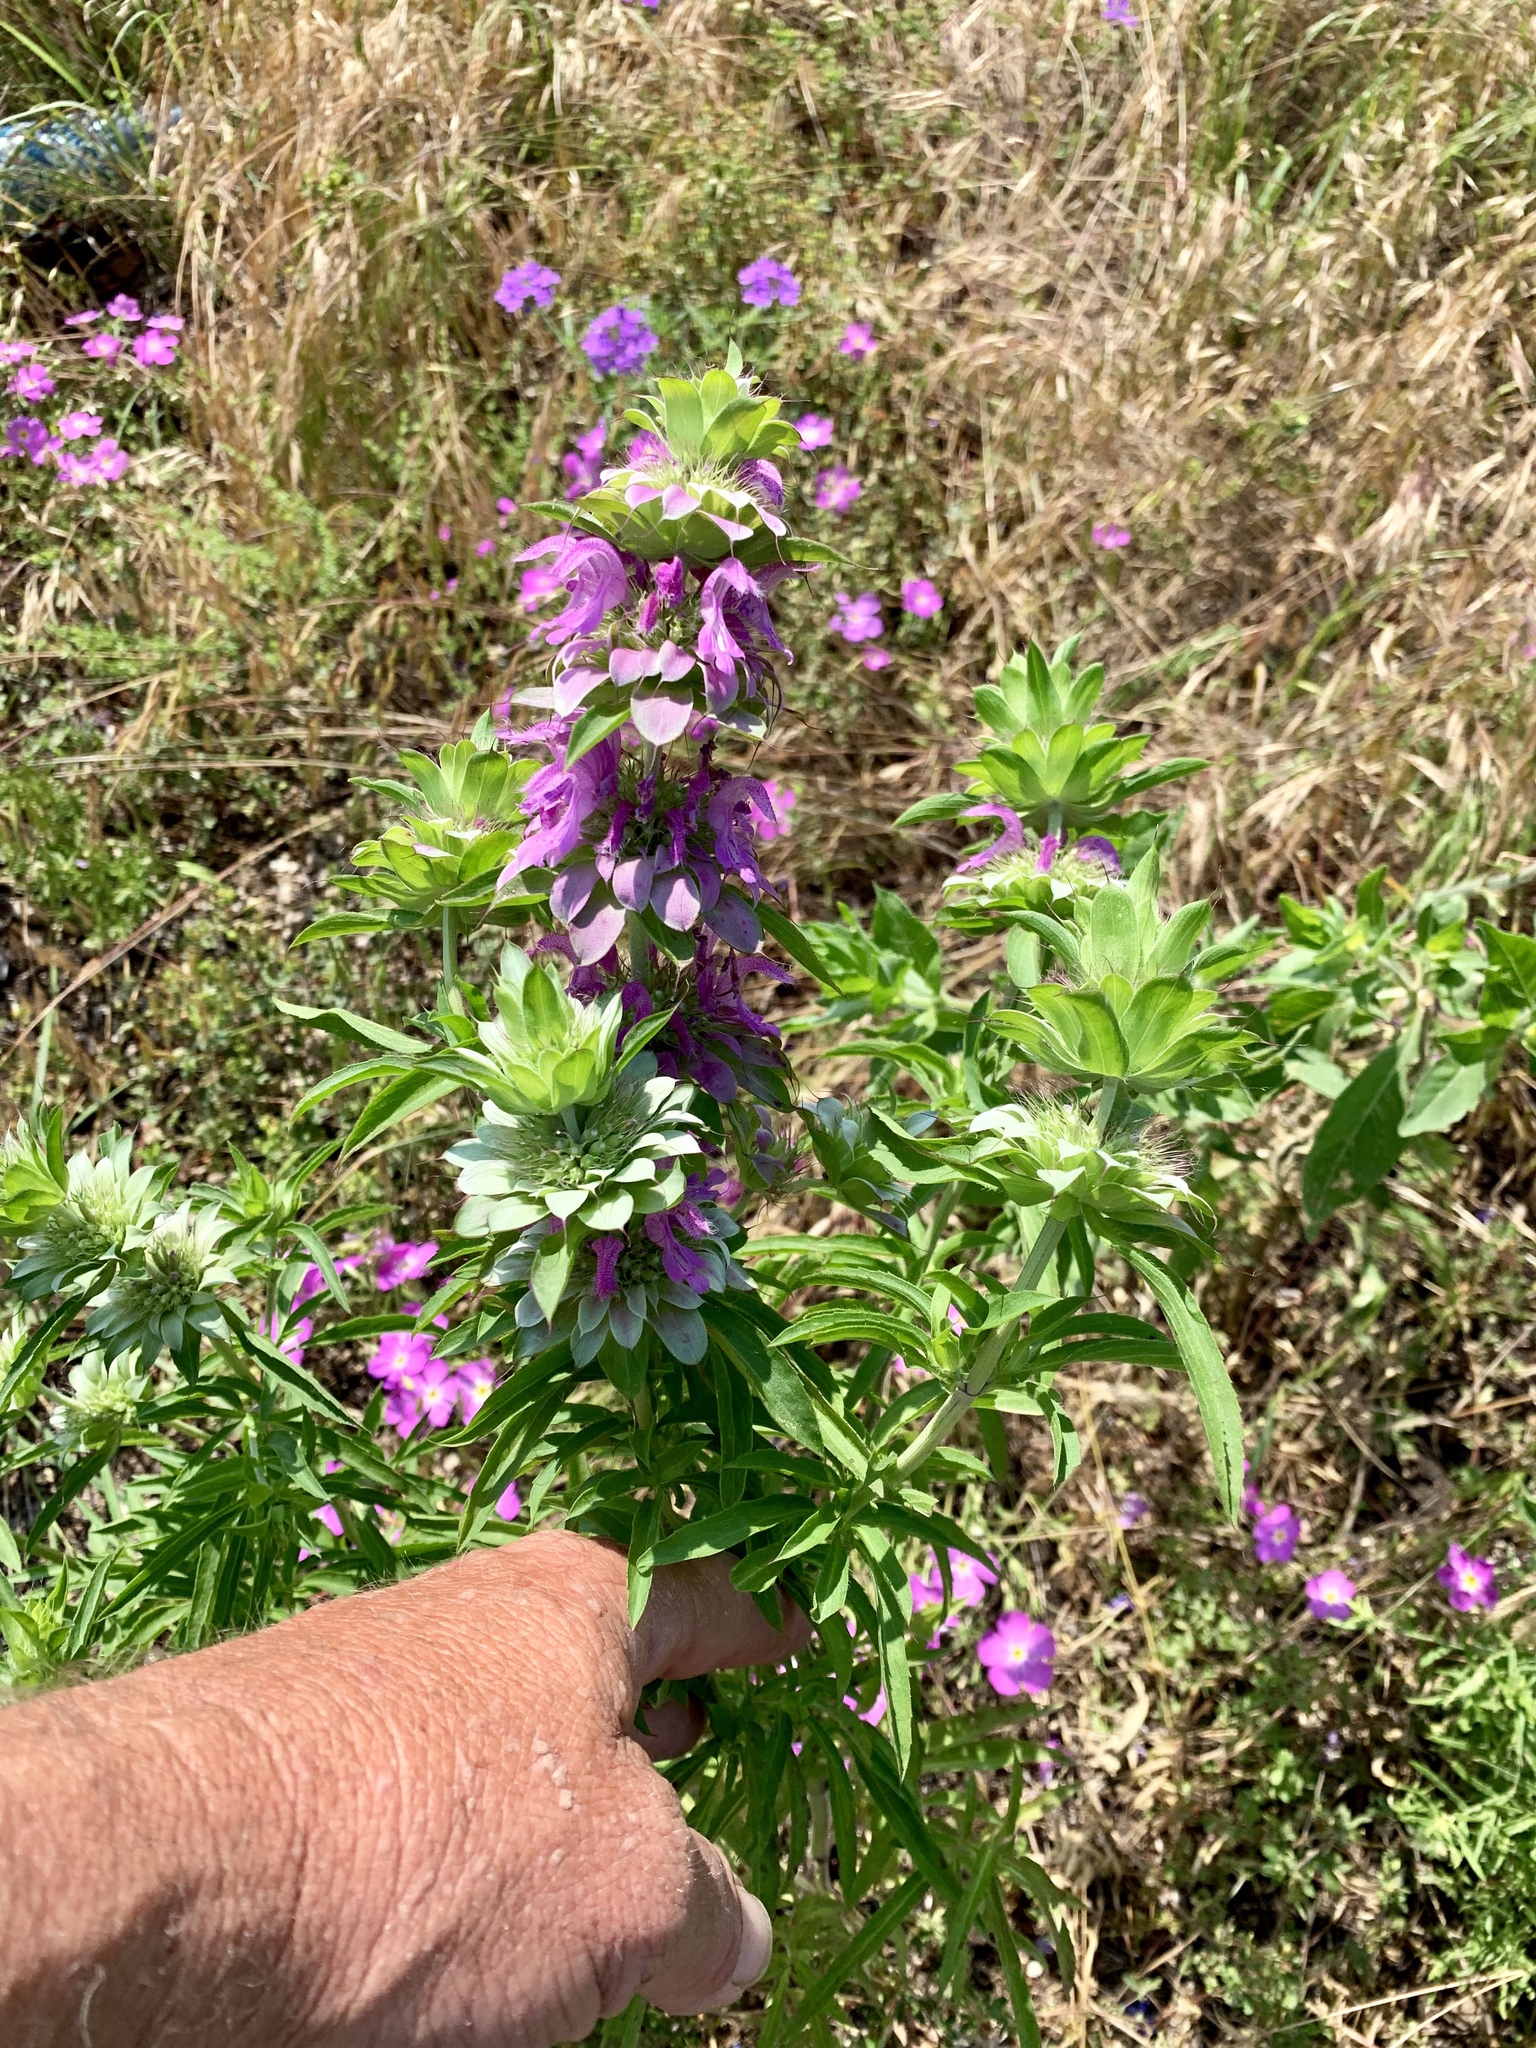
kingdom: Plantae
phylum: Tracheophyta
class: Magnoliopsida
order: Lamiales
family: Lamiaceae
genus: Monarda
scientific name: Monarda citriodora
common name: Lemon beebalm
